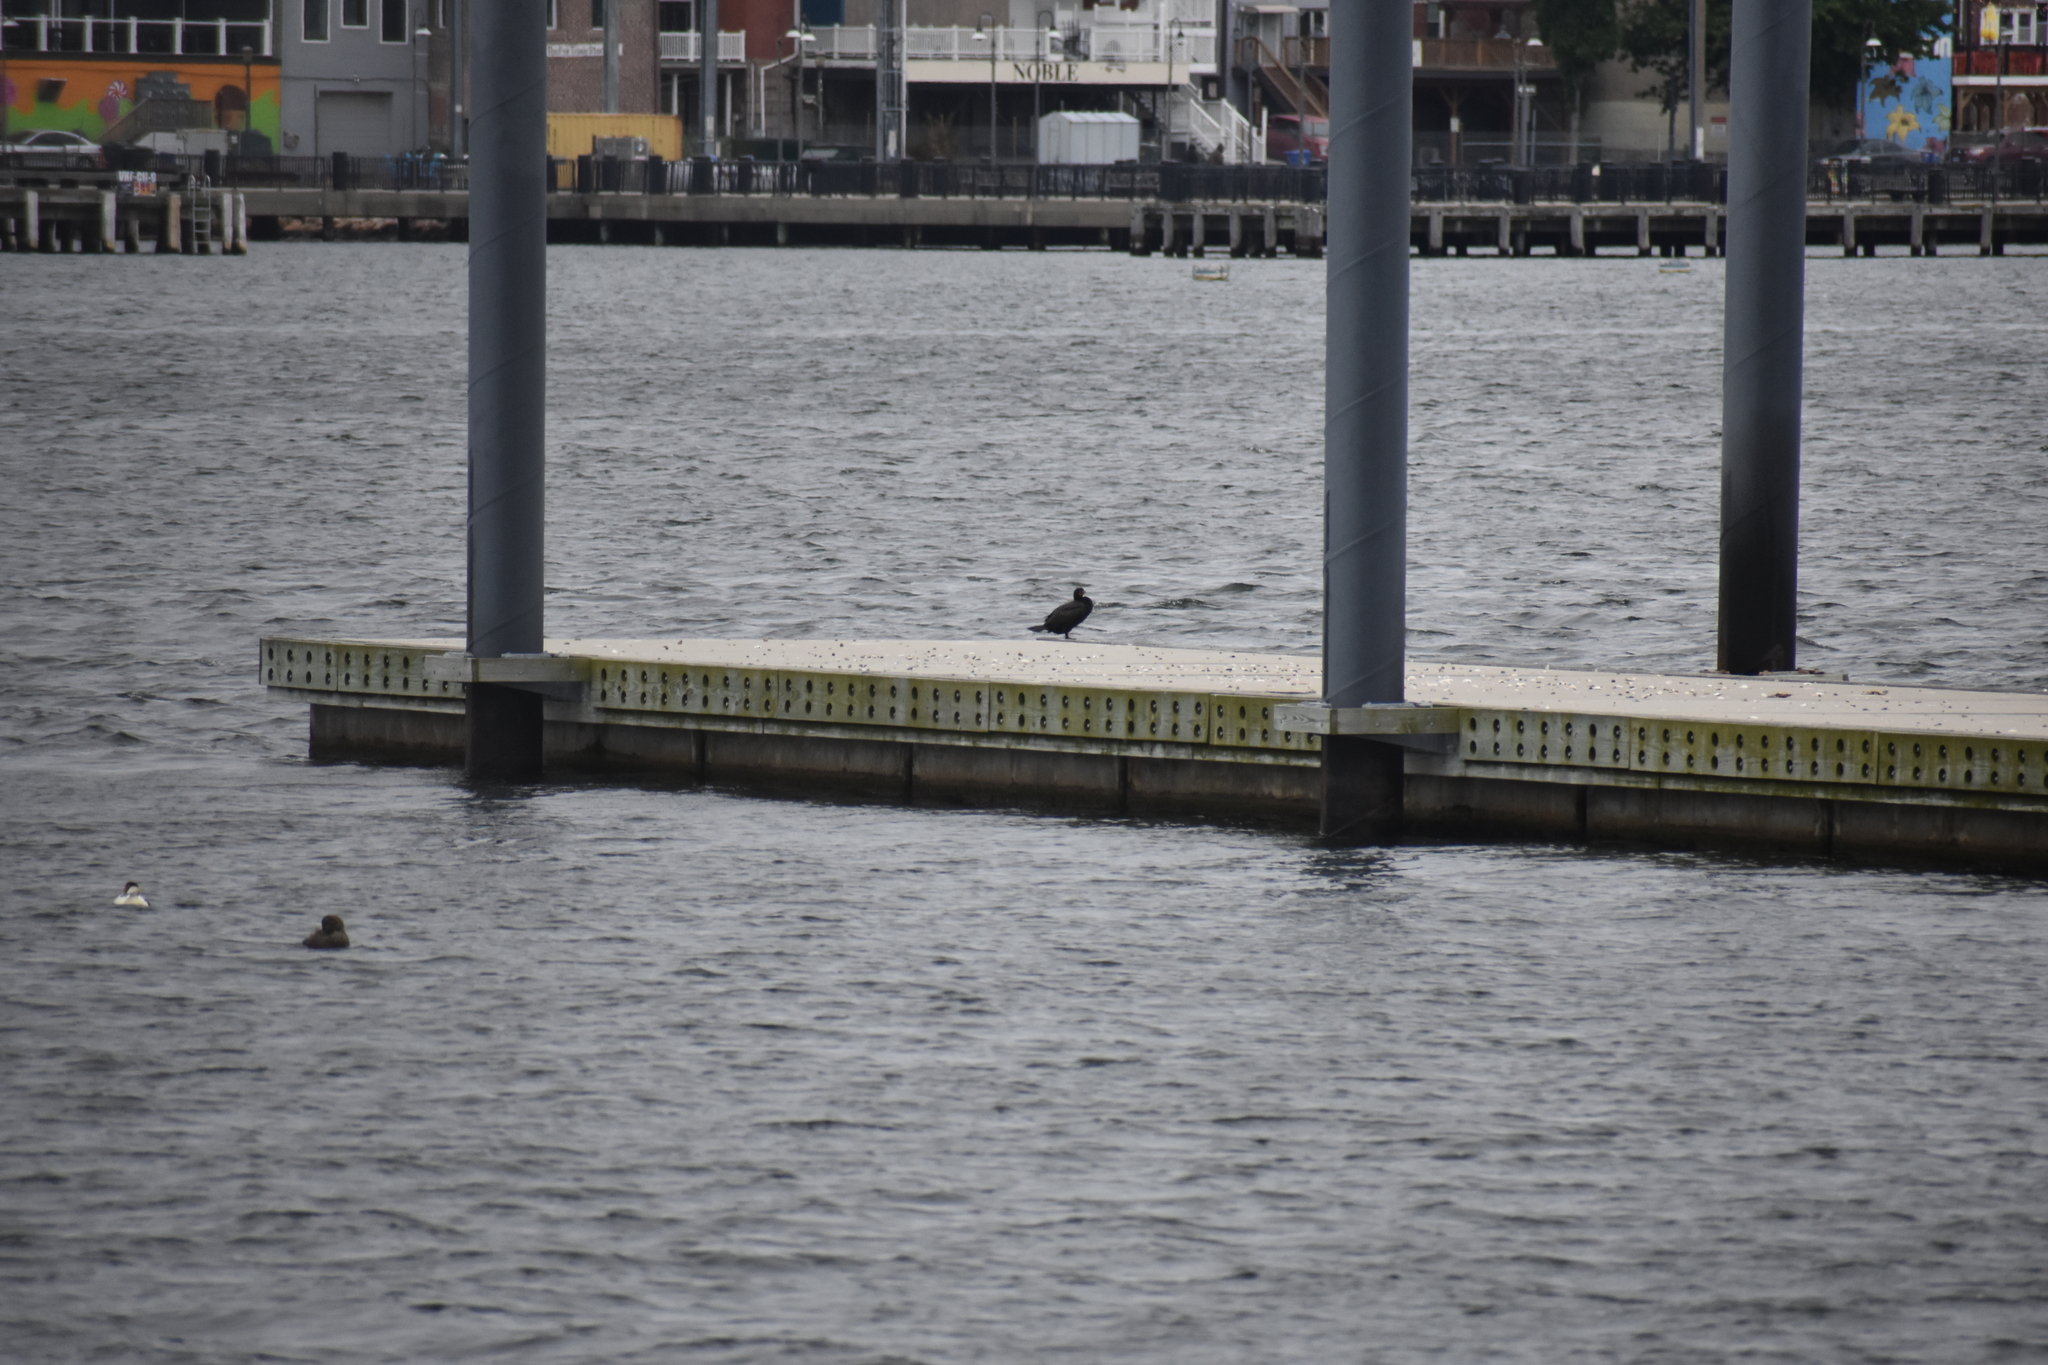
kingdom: Animalia
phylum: Chordata
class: Aves
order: Suliformes
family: Phalacrocoracidae
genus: Phalacrocorax
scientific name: Phalacrocorax auritus
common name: Double-crested cormorant
